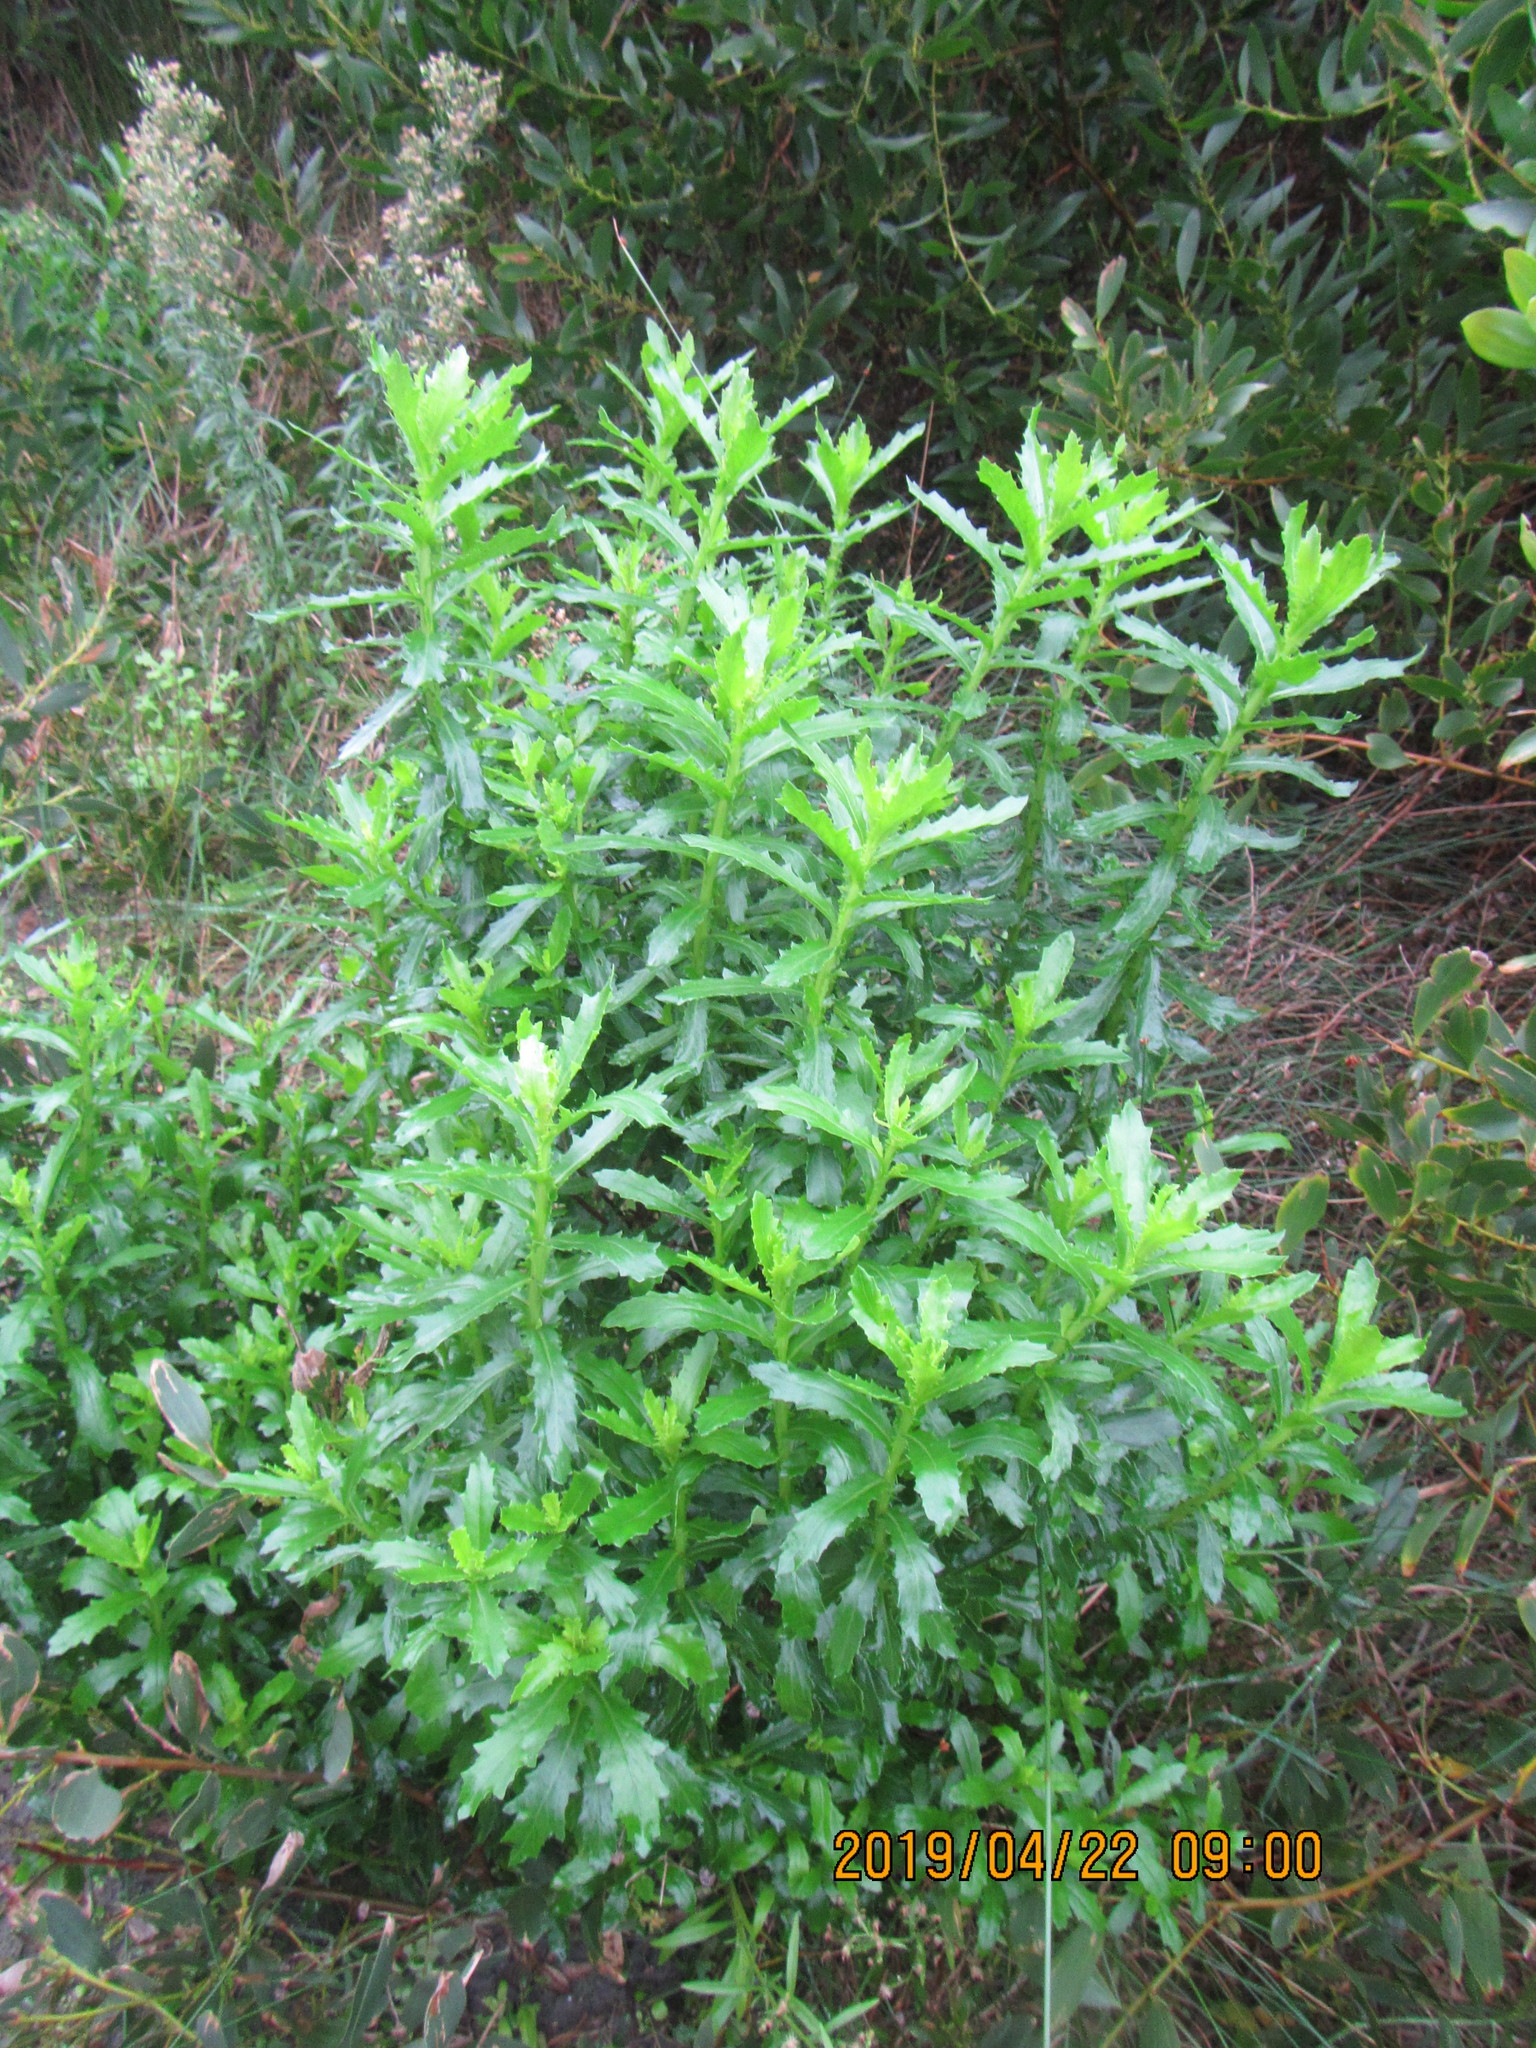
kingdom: Plantae
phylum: Tracheophyta
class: Magnoliopsida
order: Asterales
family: Asteraceae
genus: Senecio
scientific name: Senecio glastifolius
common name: Woad-leaved ragwort
